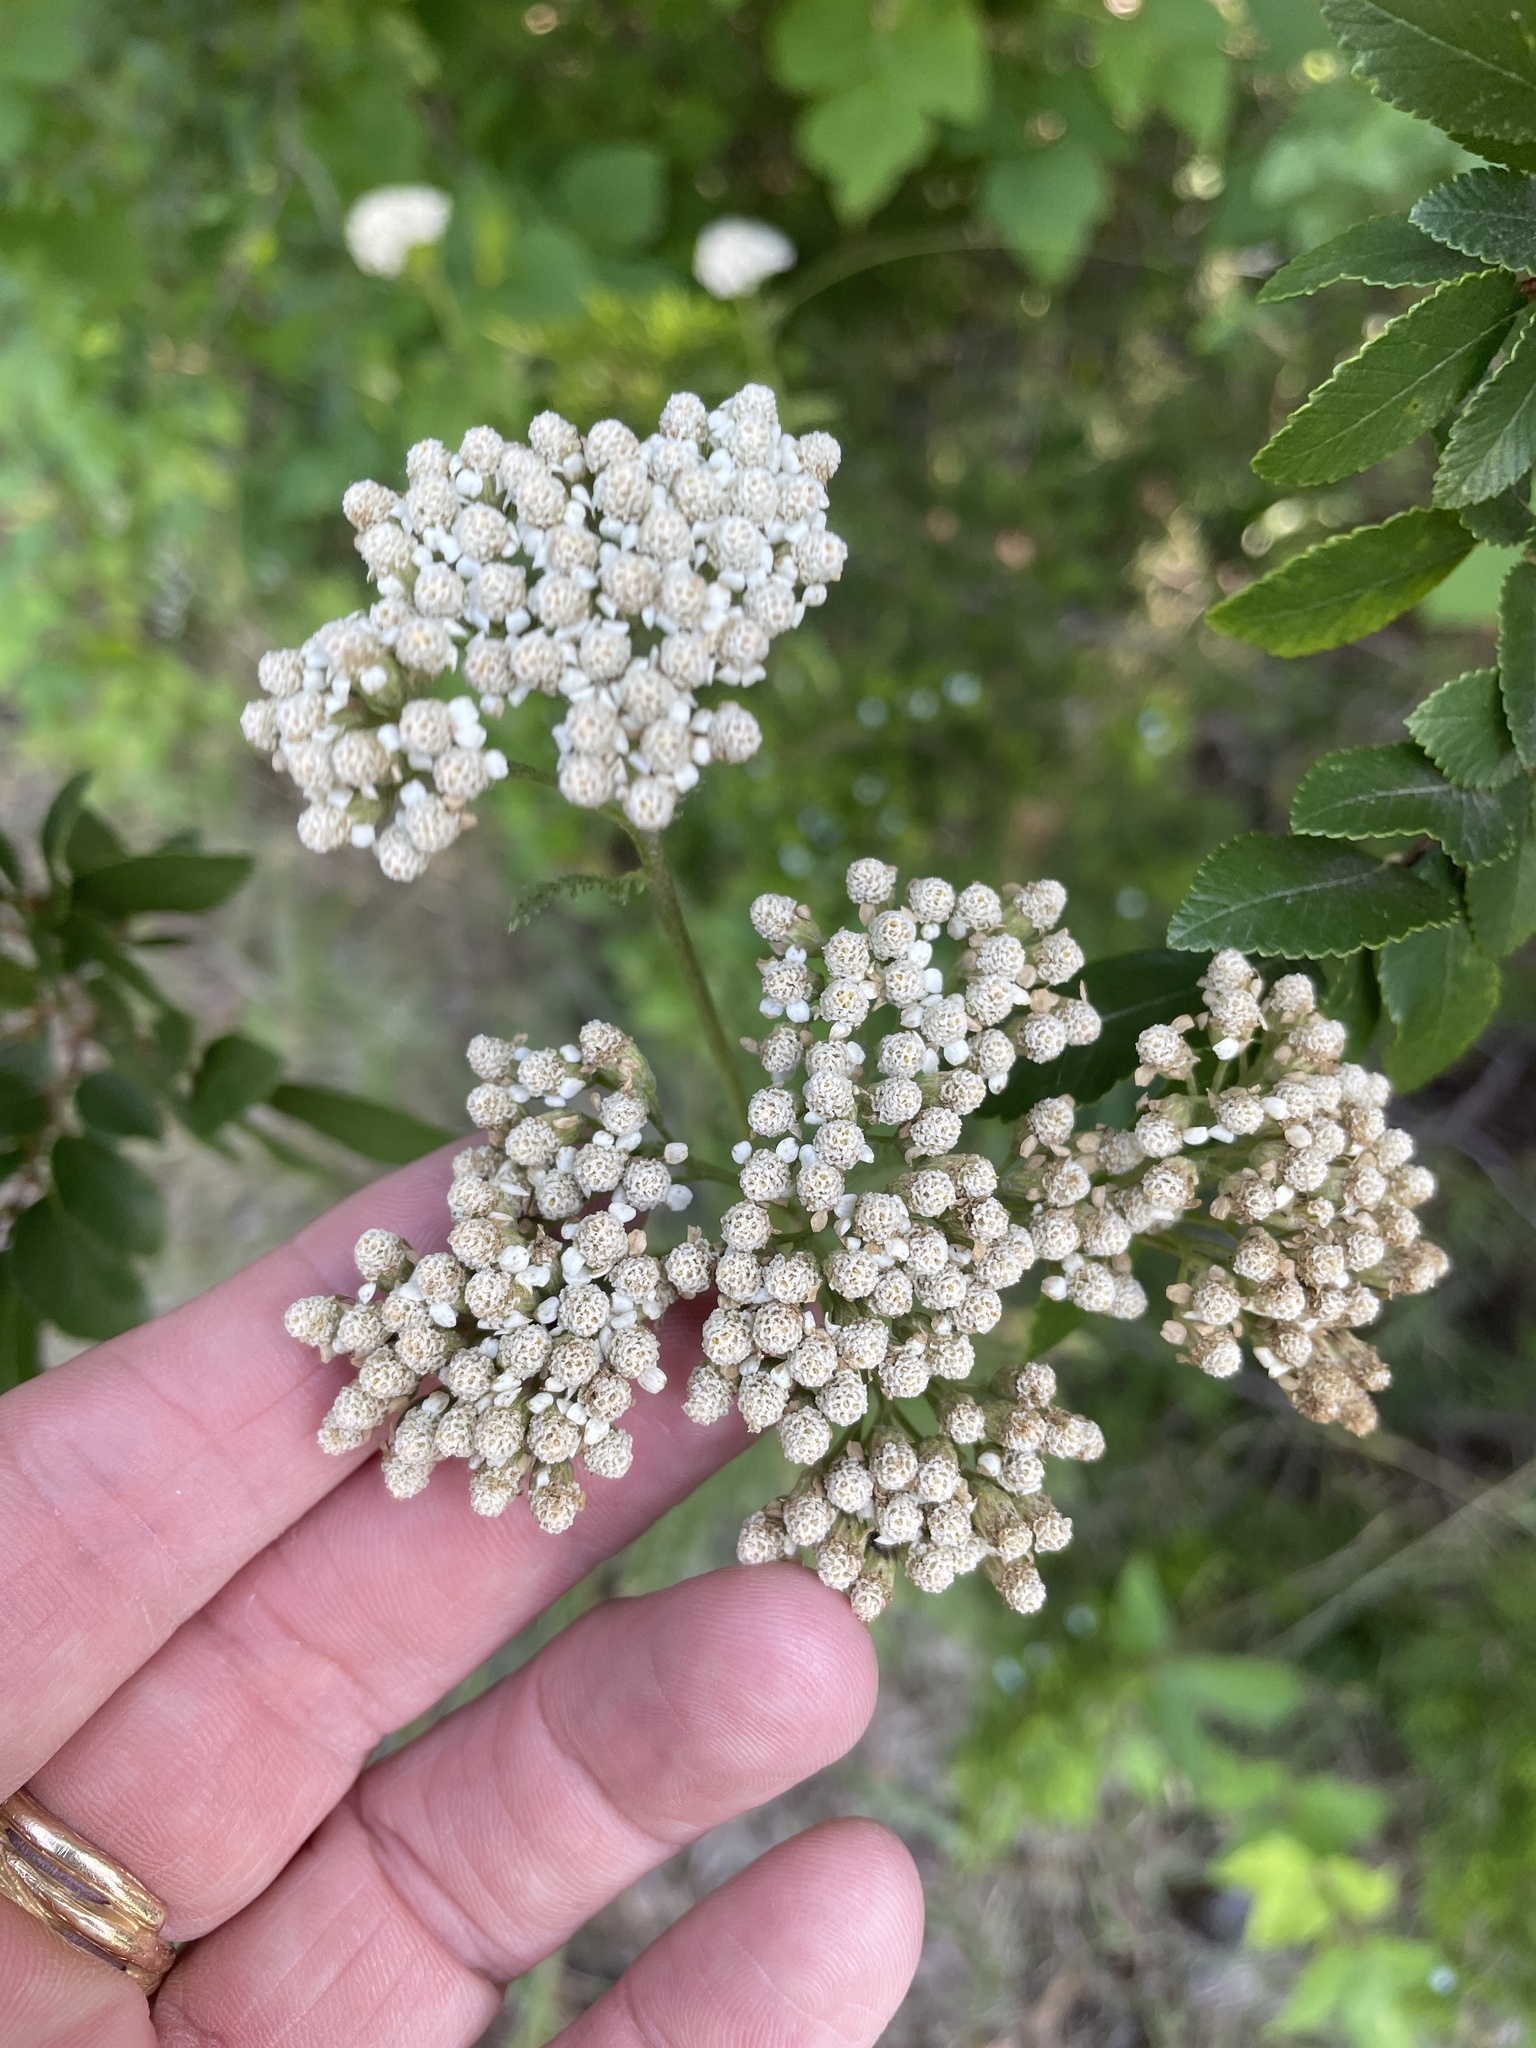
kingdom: Plantae
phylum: Tracheophyta
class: Magnoliopsida
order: Asterales
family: Asteraceae
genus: Achillea
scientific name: Achillea millefolium
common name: Yarrow
